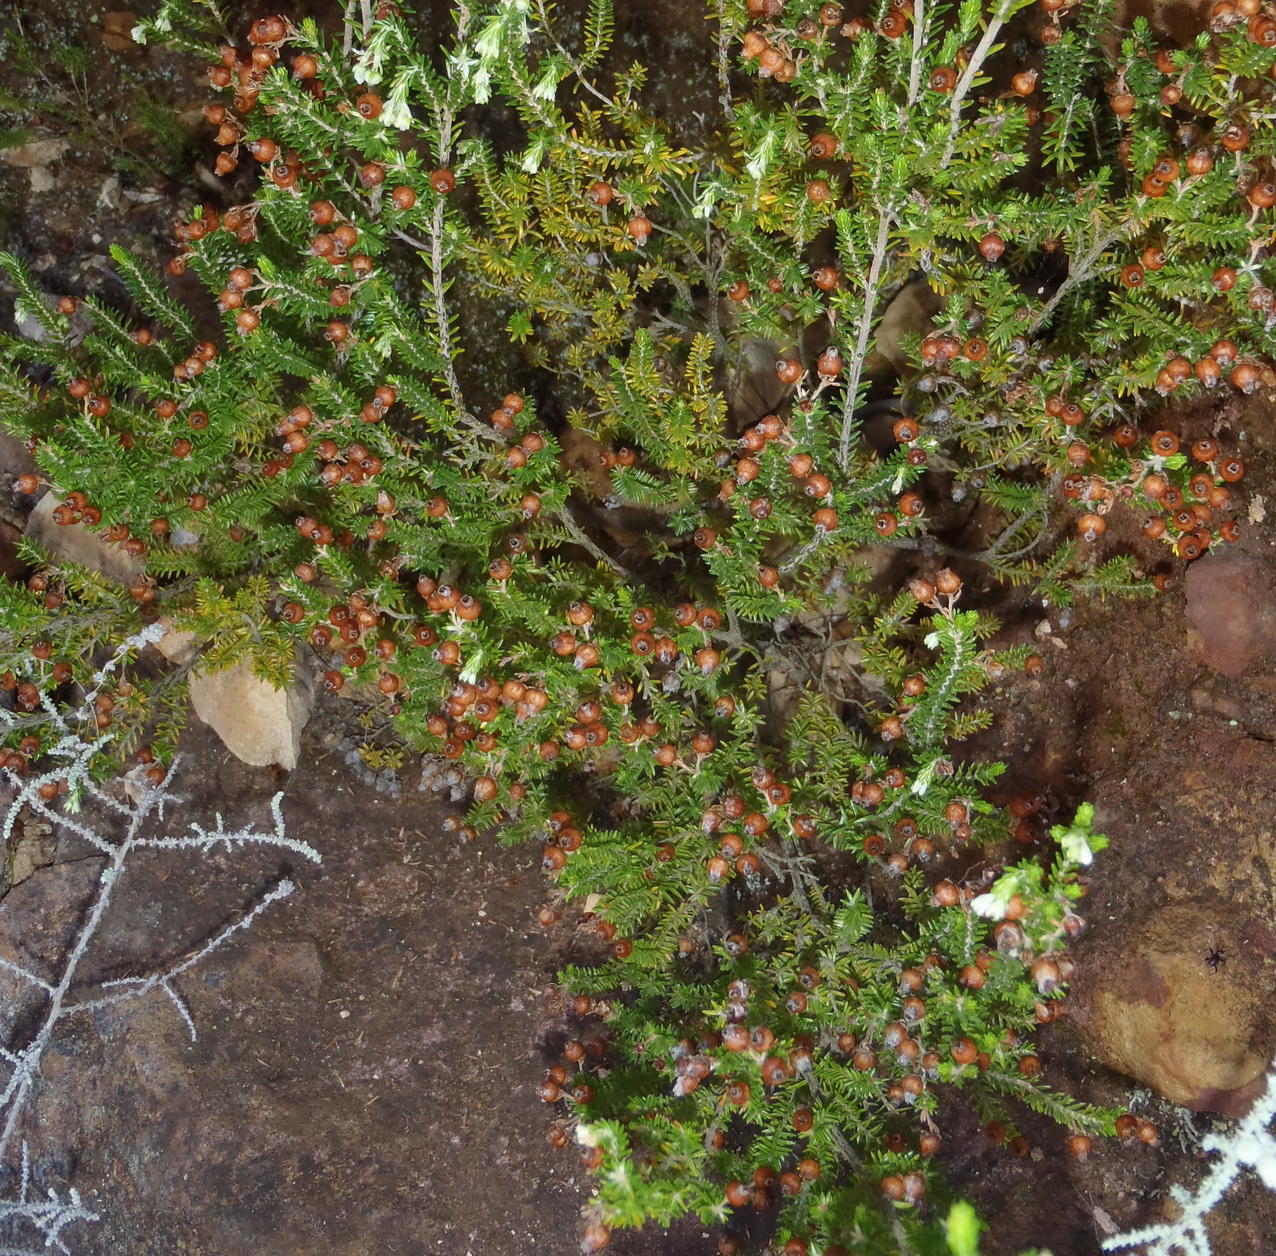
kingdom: Plantae
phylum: Tracheophyta
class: Magnoliopsida
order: Ericales
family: Ericaceae
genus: Erica
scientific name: Erica glomiflora
